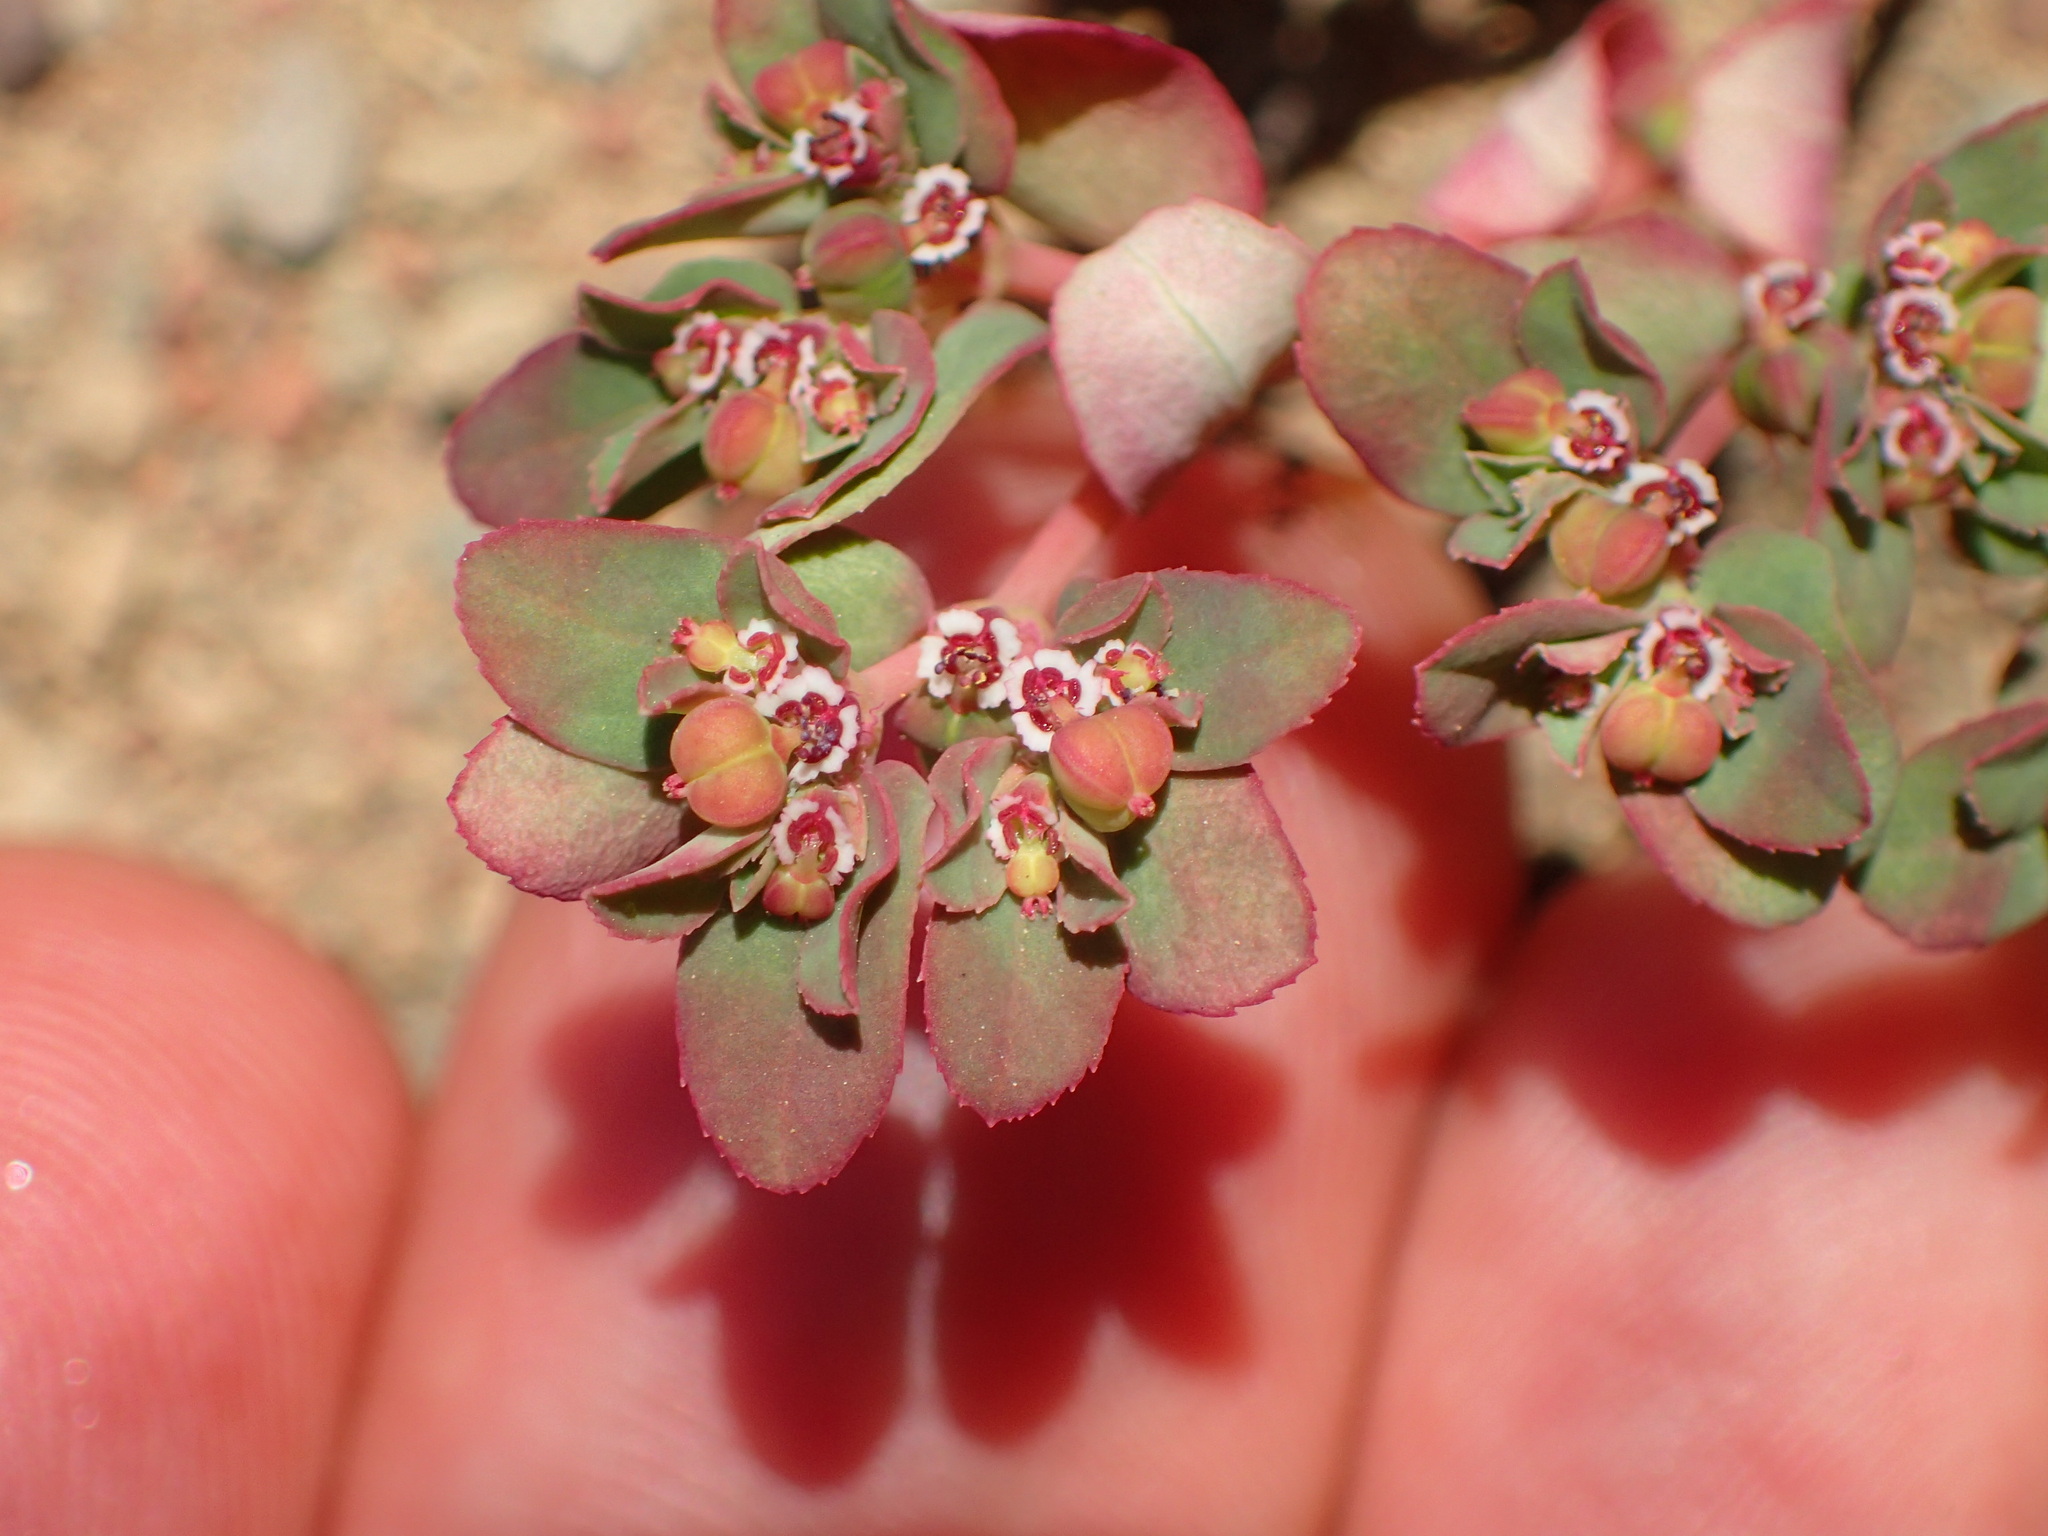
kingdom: Plantae
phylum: Tracheophyta
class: Magnoliopsida
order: Malpighiales
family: Euphorbiaceae
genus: Euphorbia
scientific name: Euphorbia serpillifolia
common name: Thyme-leaf spurge
